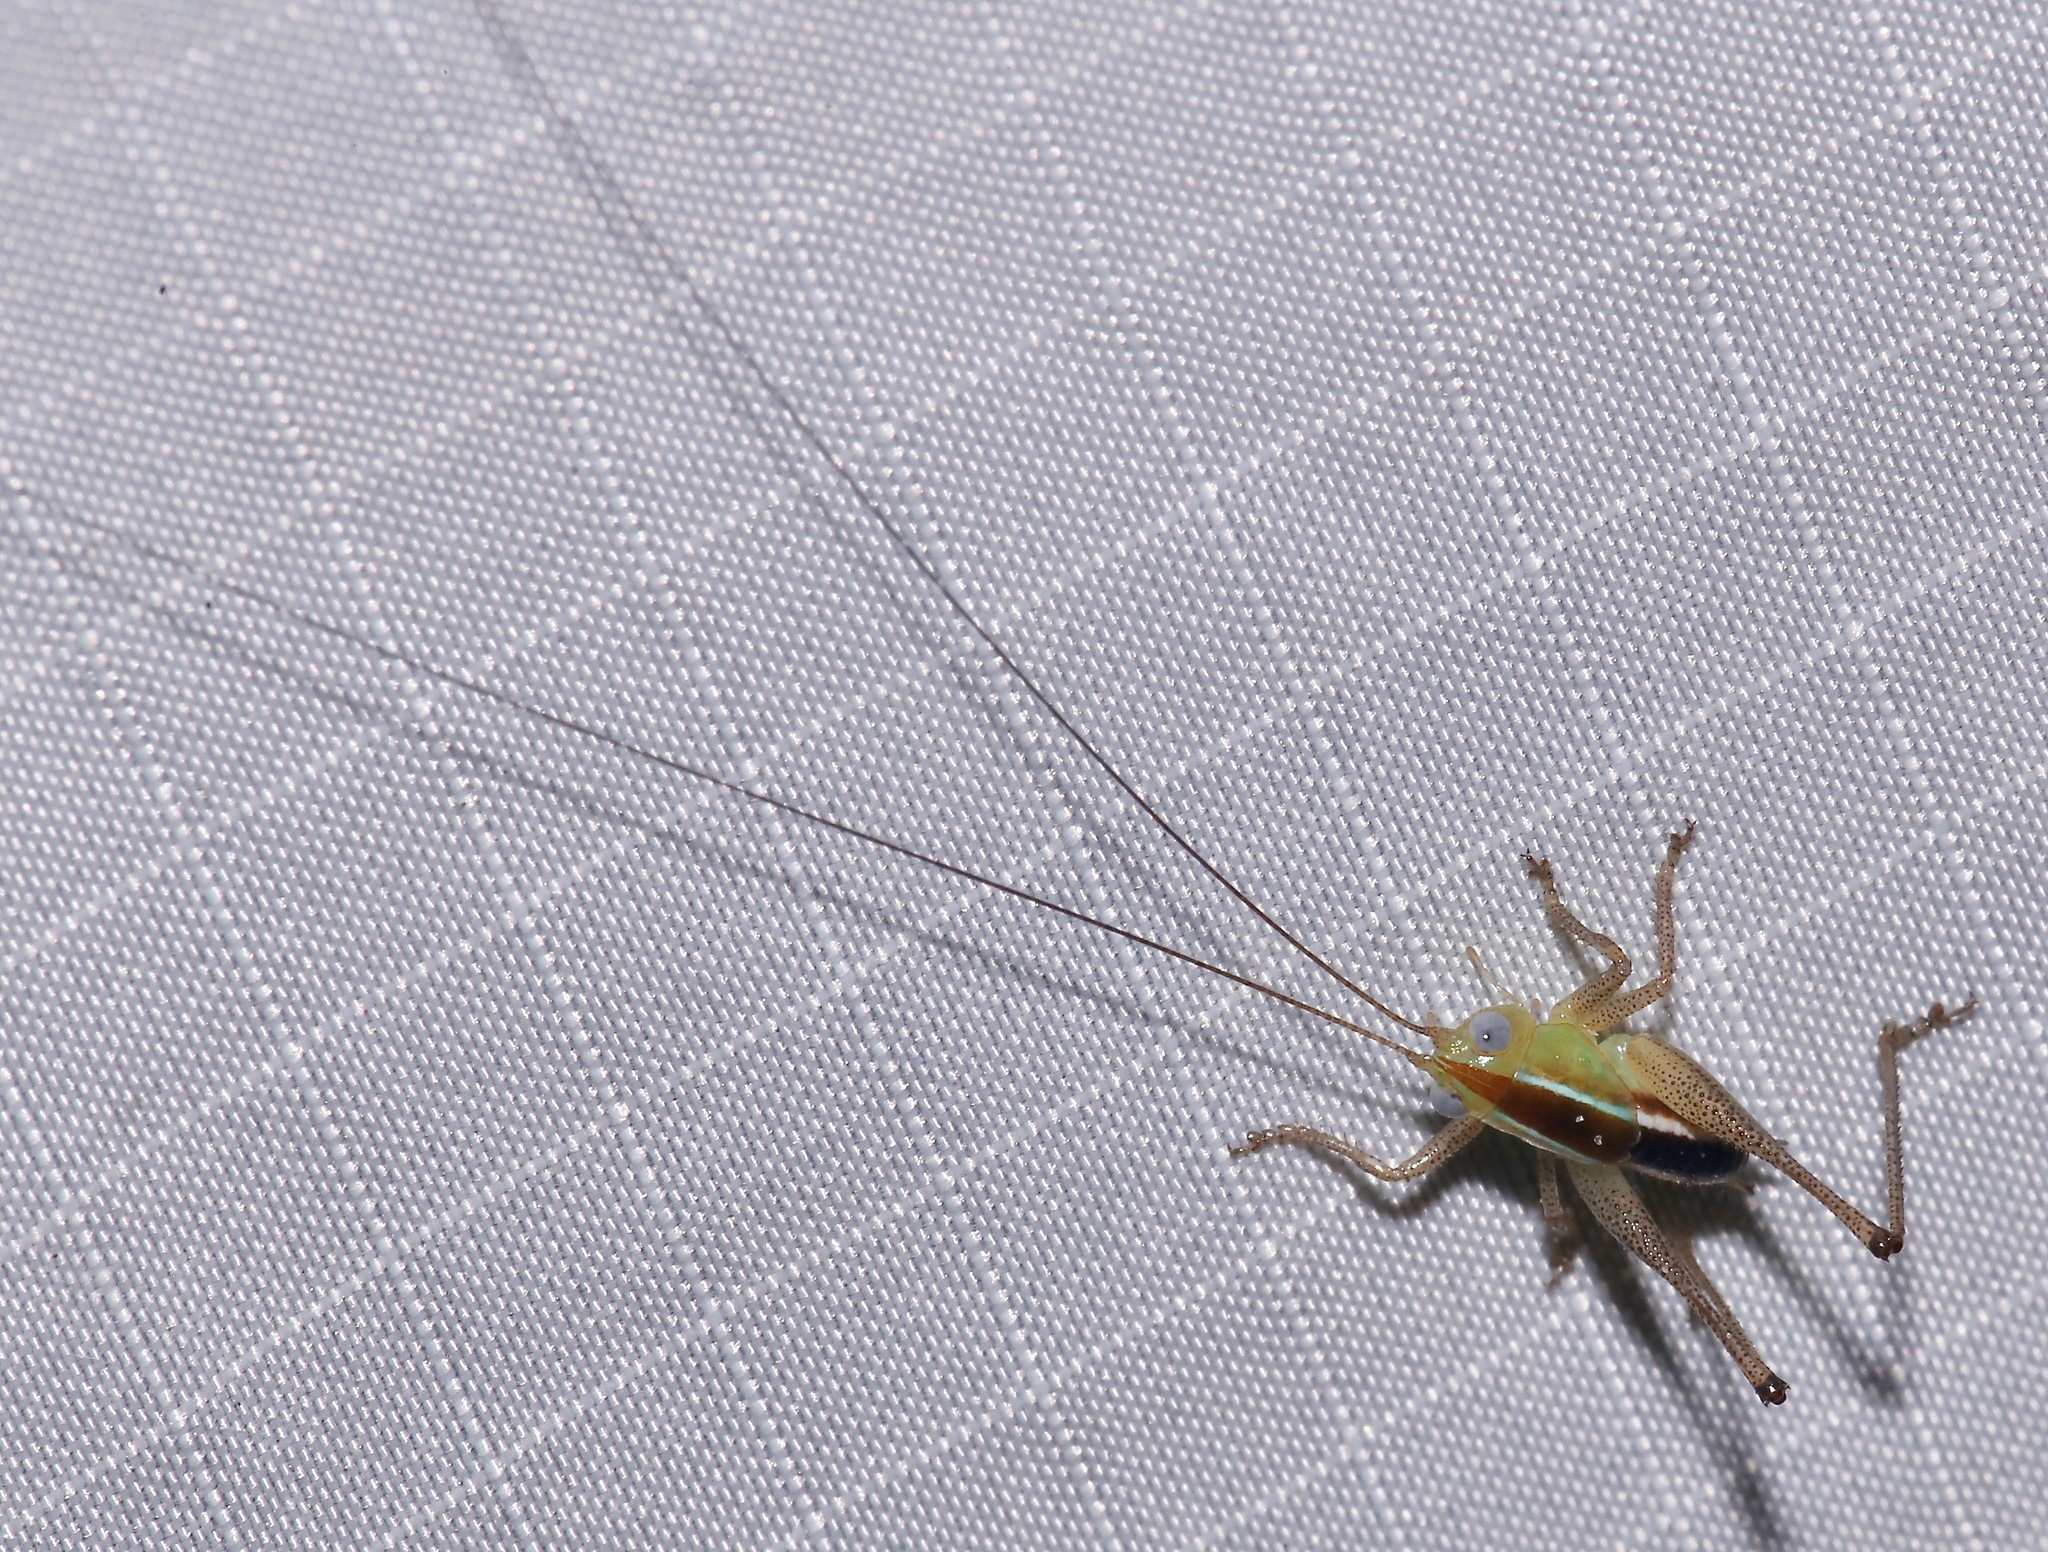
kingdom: Animalia
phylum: Arthropoda
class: Insecta
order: Orthoptera
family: Tettigoniidae
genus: Odontoxiphidium
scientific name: Odontoxiphidium
